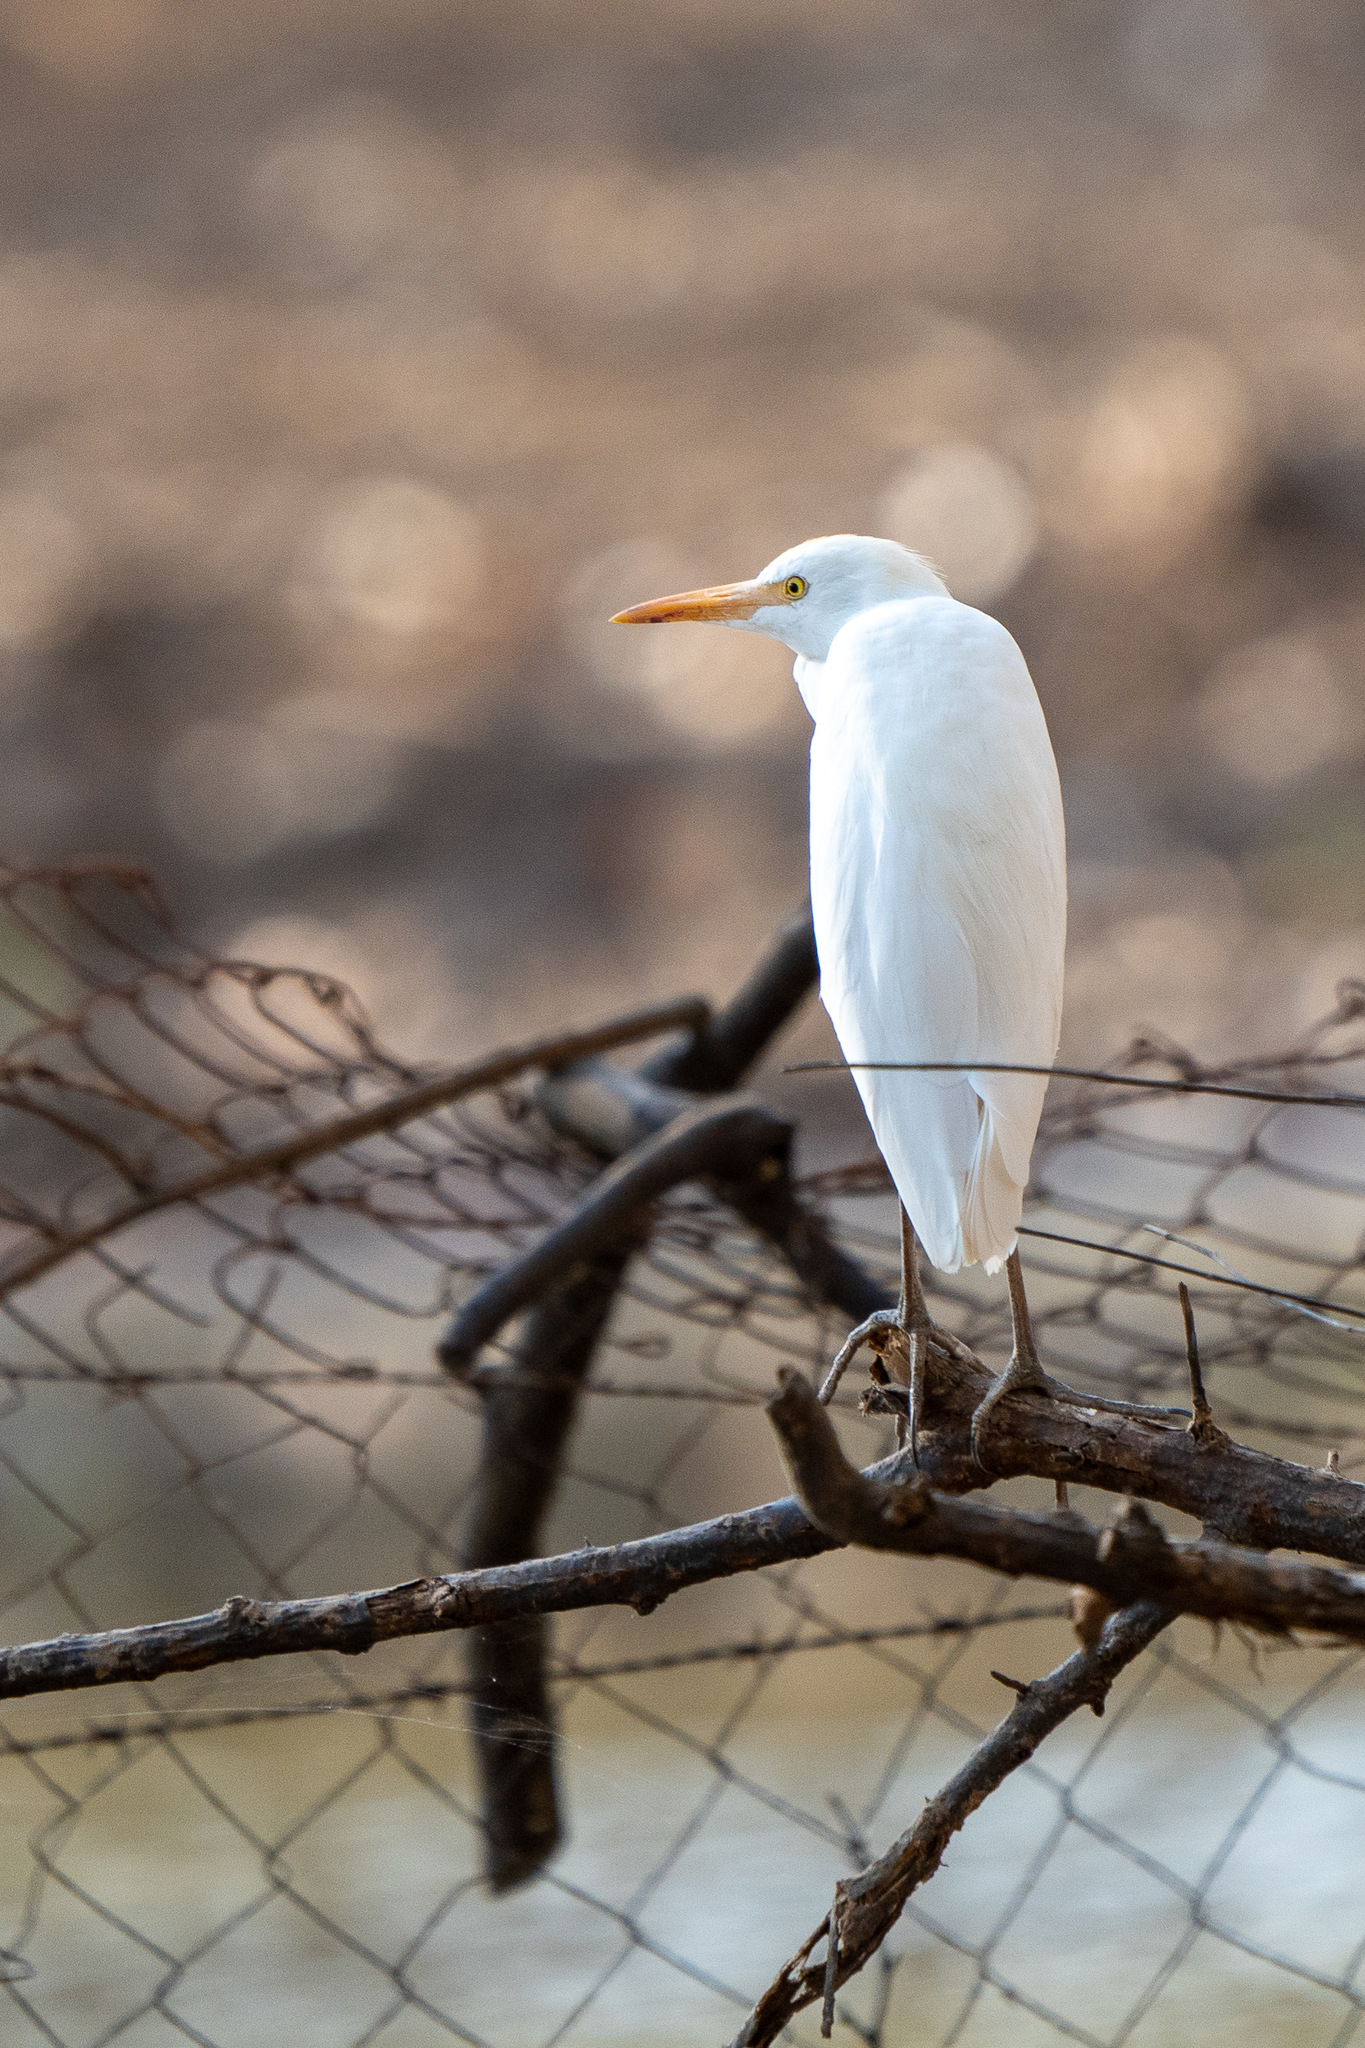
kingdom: Animalia
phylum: Chordata
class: Aves
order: Pelecaniformes
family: Ardeidae
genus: Bubulcus
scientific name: Bubulcus ibis
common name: Cattle egret
